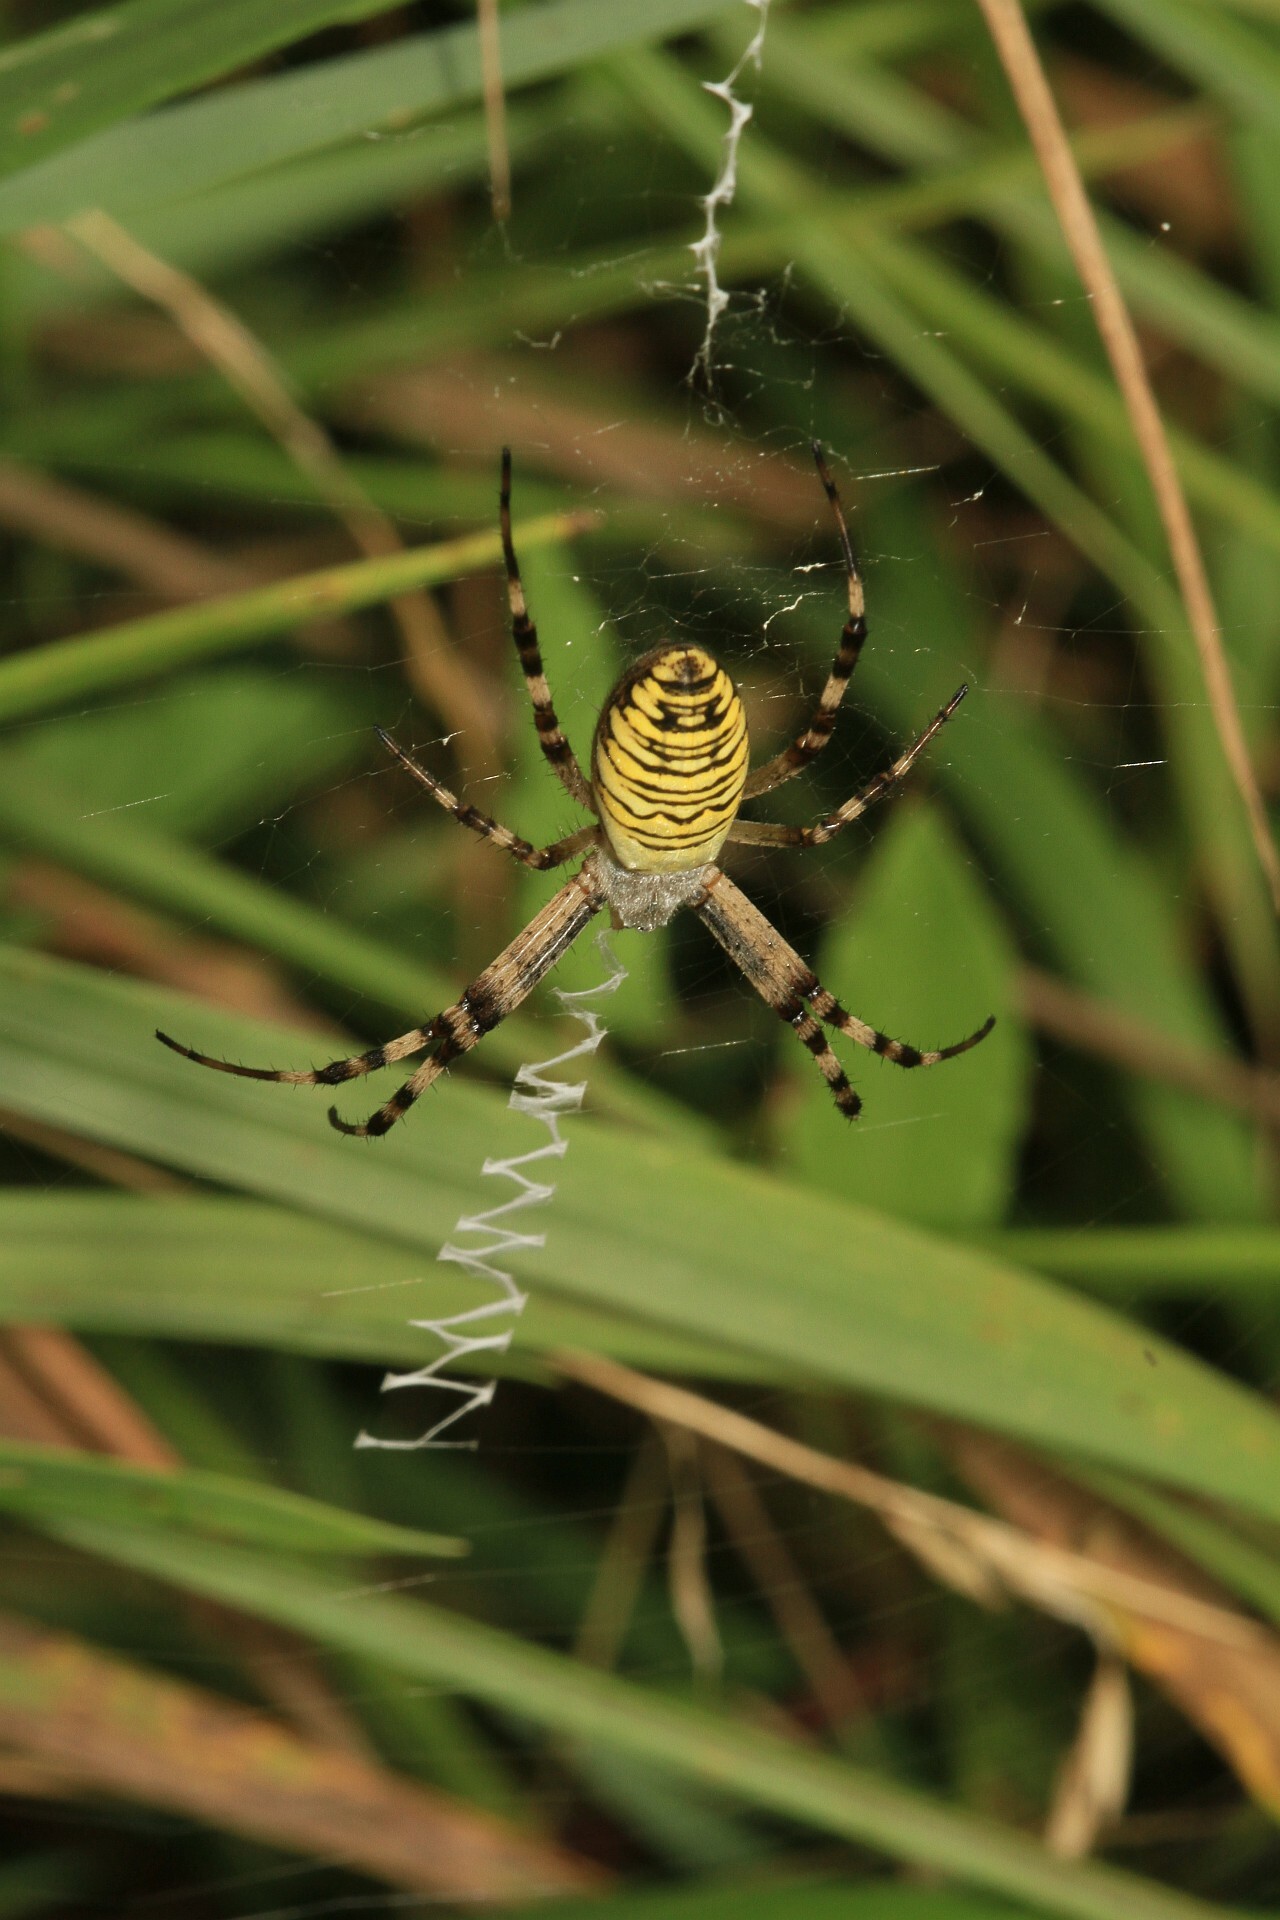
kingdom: Animalia
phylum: Arthropoda
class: Arachnida
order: Araneae
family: Araneidae
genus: Argiope
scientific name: Argiope bruennichi
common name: Wasp spider
